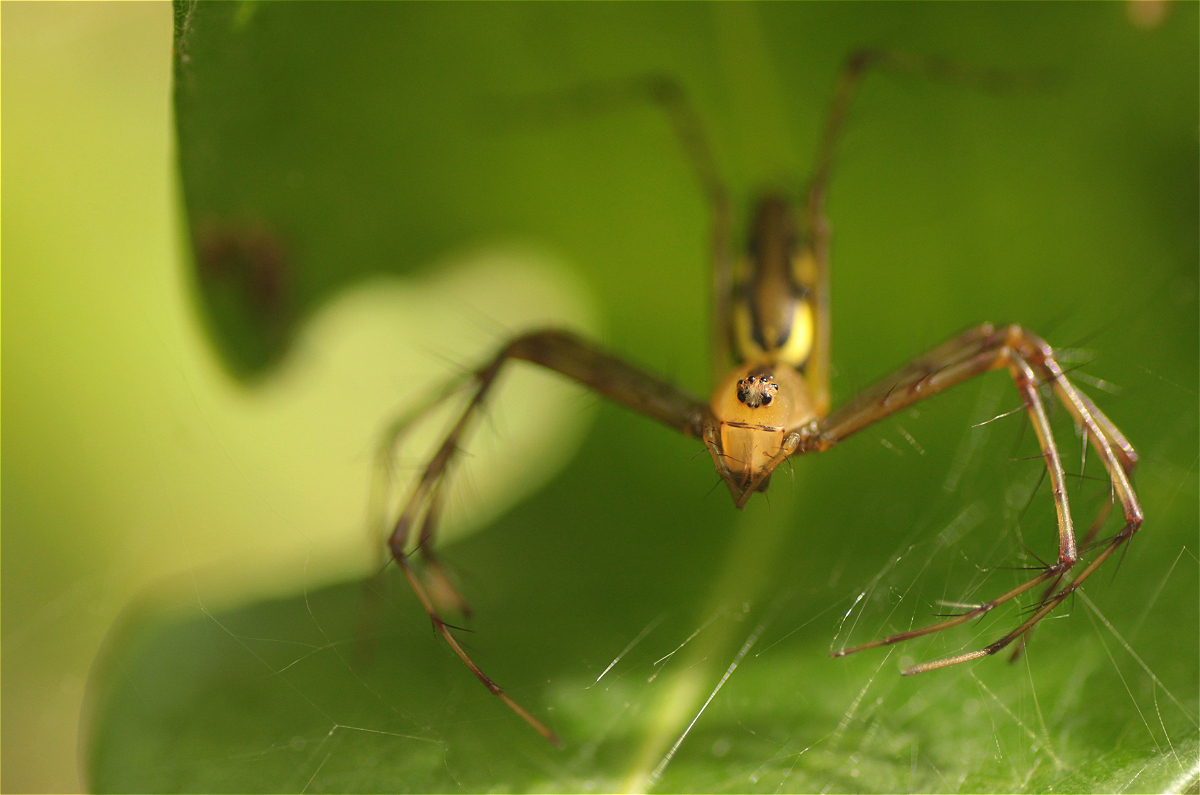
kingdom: Animalia
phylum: Arthropoda
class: Arachnida
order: Araneae
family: Oxyopidae
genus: Tapinillus
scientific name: Tapinillus longipes
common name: Lynx spiders
